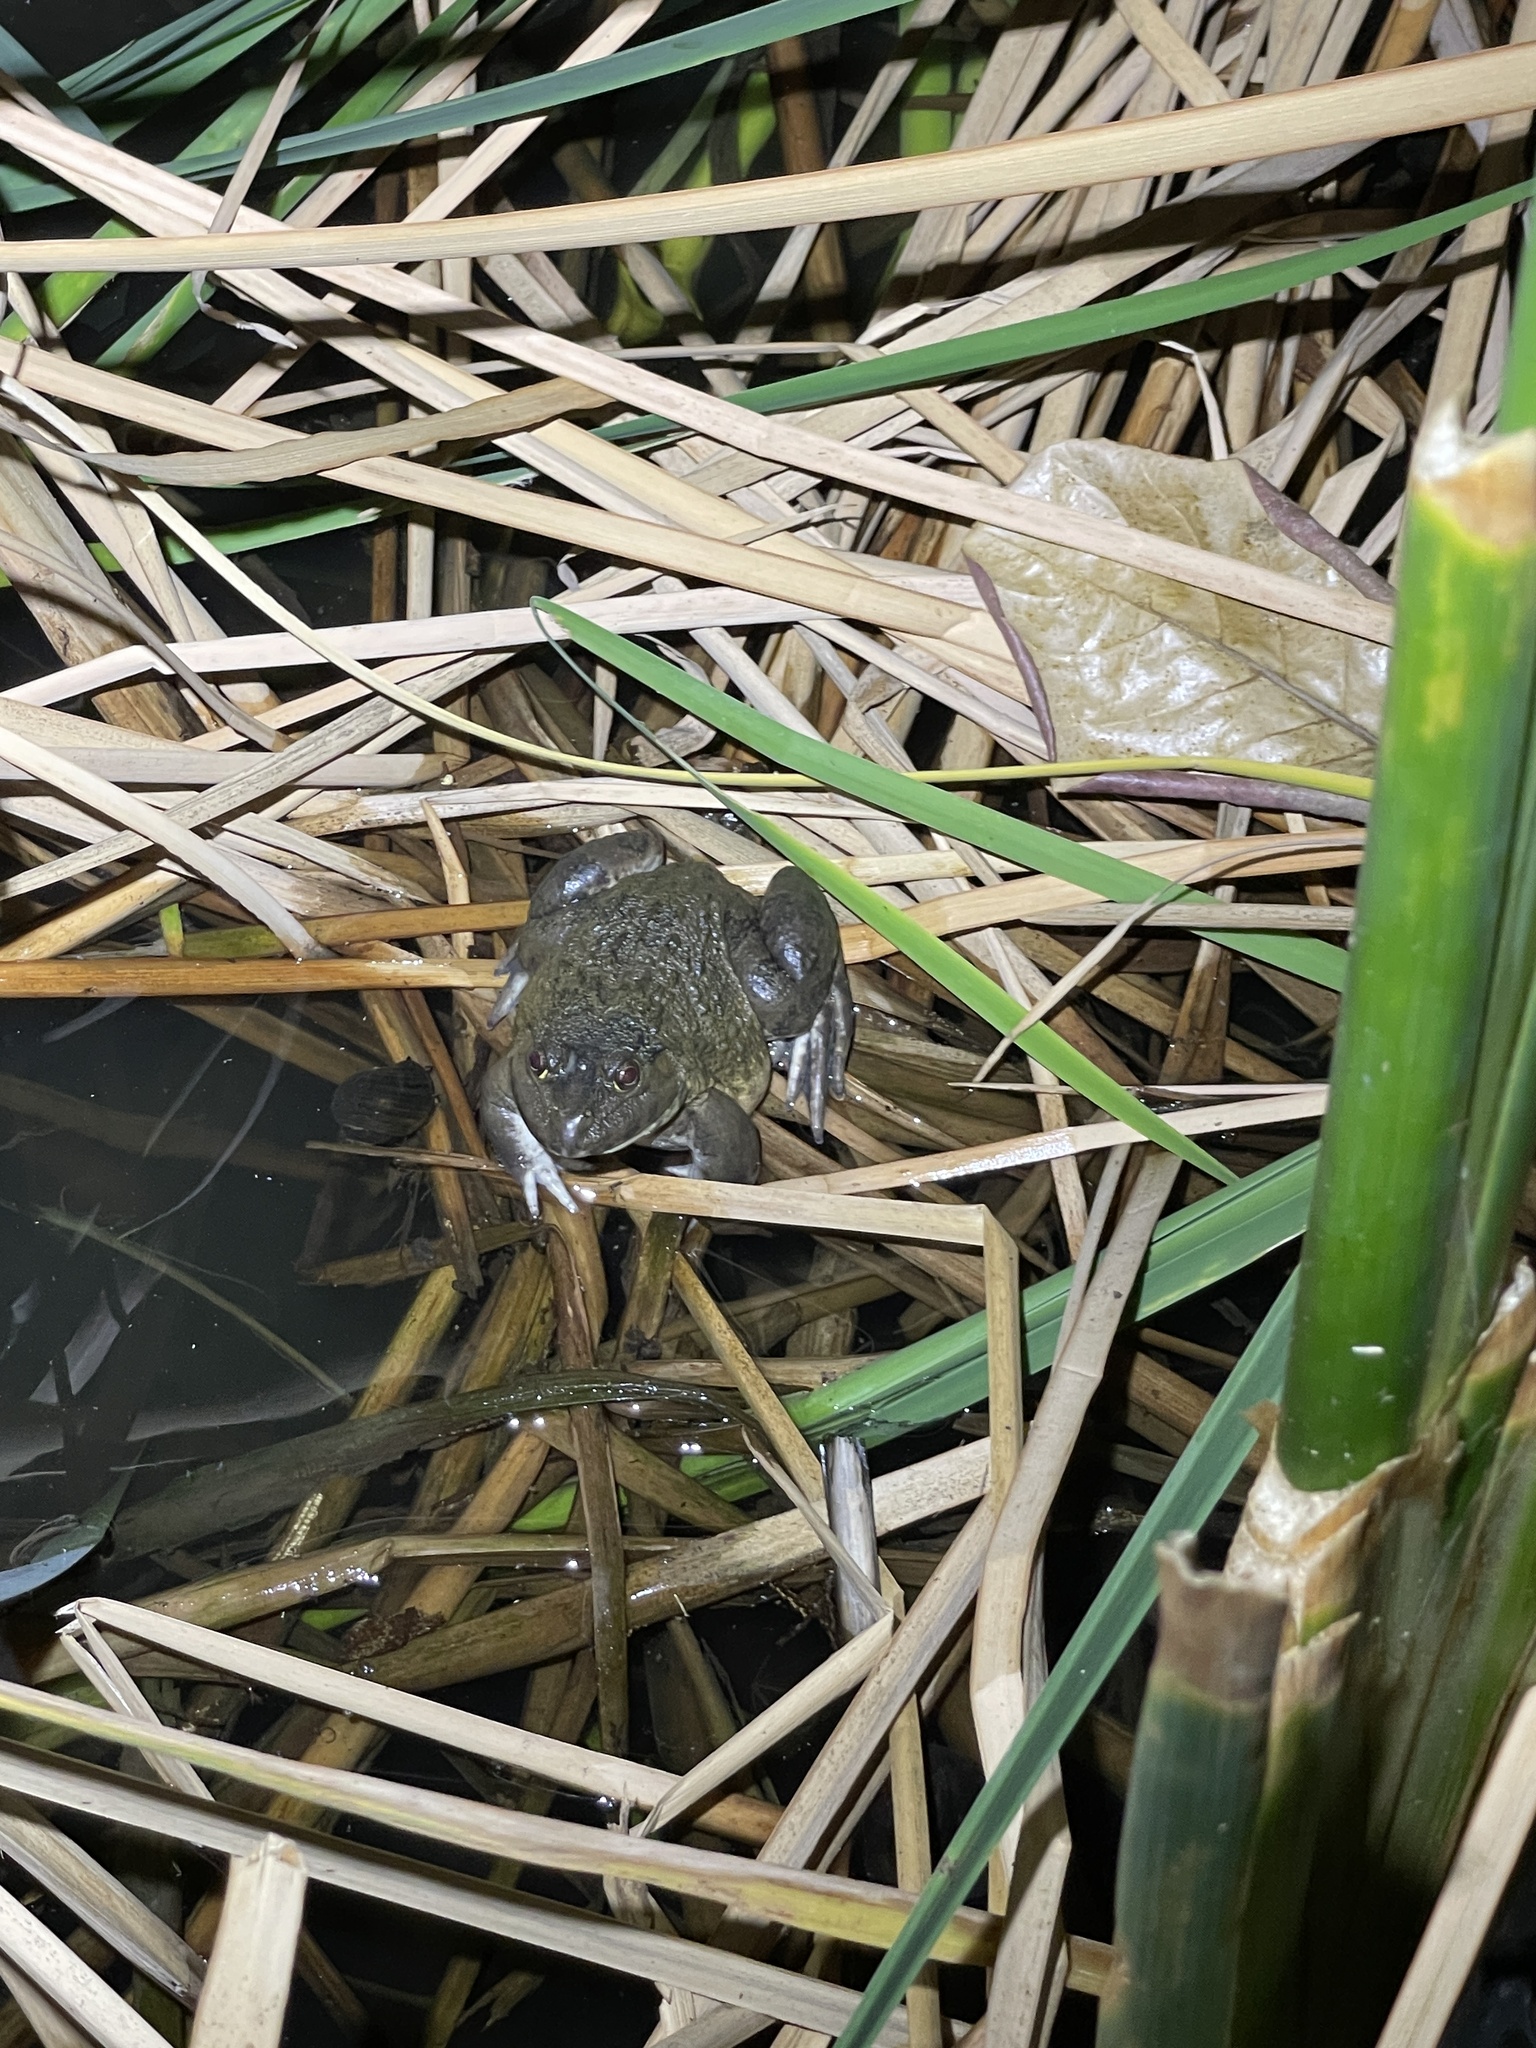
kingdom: Animalia
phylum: Chordata
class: Amphibia
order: Anura
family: Dicroglossidae
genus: Hoplobatrachus
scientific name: Hoplobatrachus rugulosus
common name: Chinese edible frog
